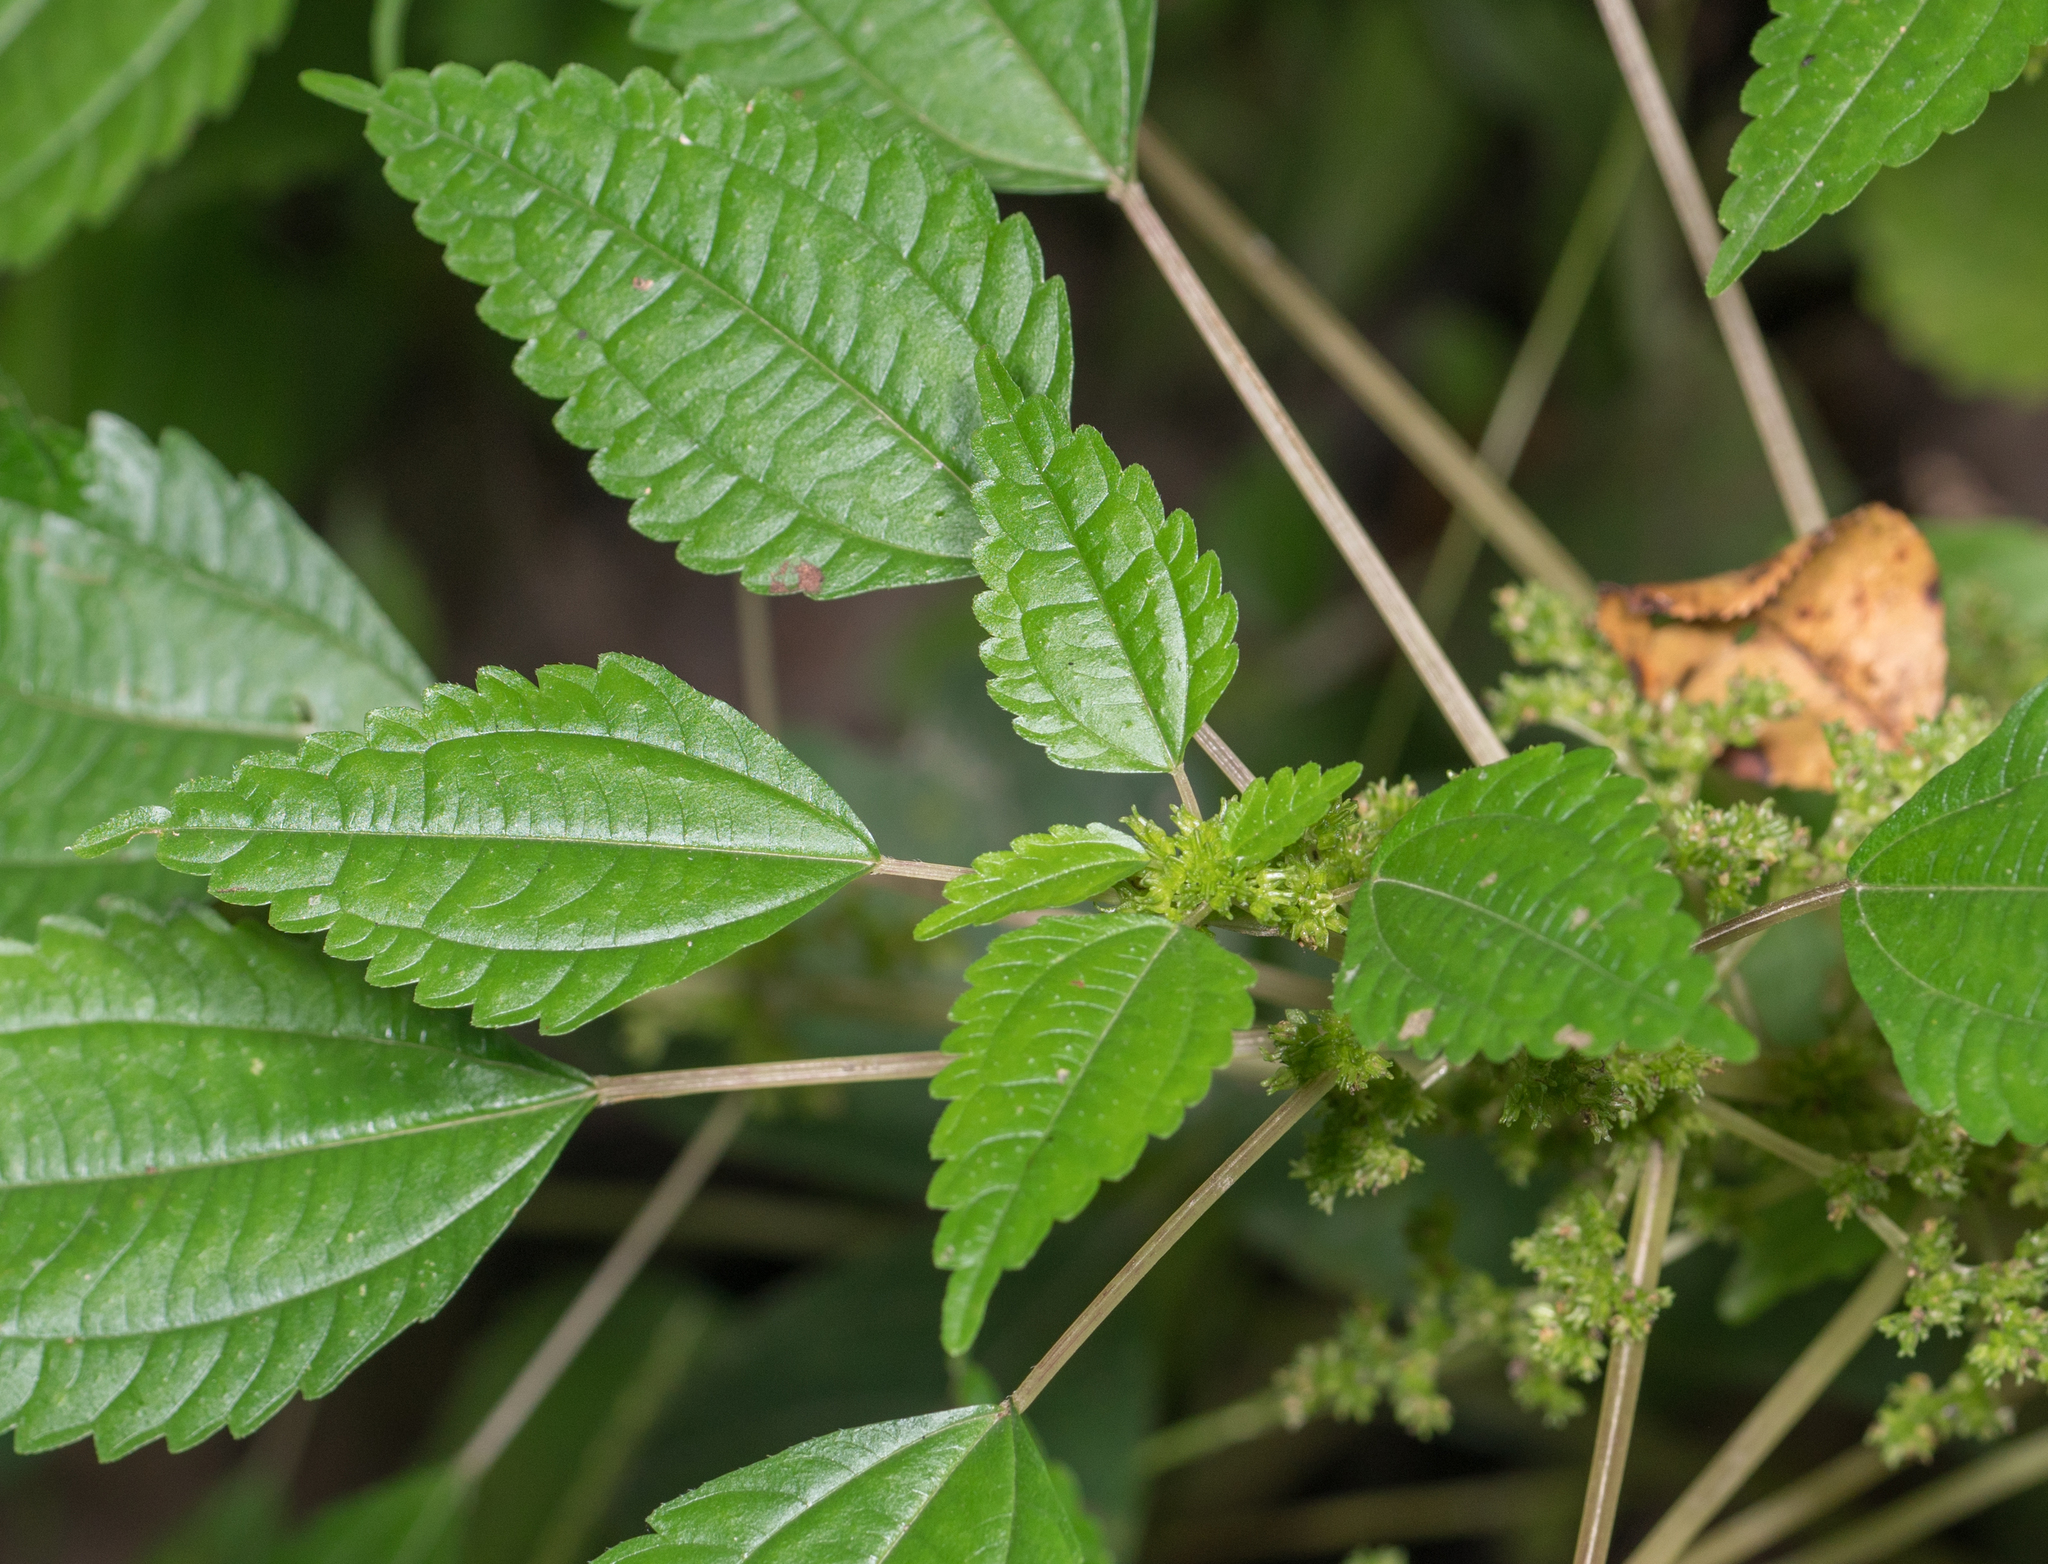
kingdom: Plantae
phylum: Tracheophyta
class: Magnoliopsida
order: Rosales
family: Urticaceae
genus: Pilea
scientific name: Pilea pumila
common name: Clearweed
